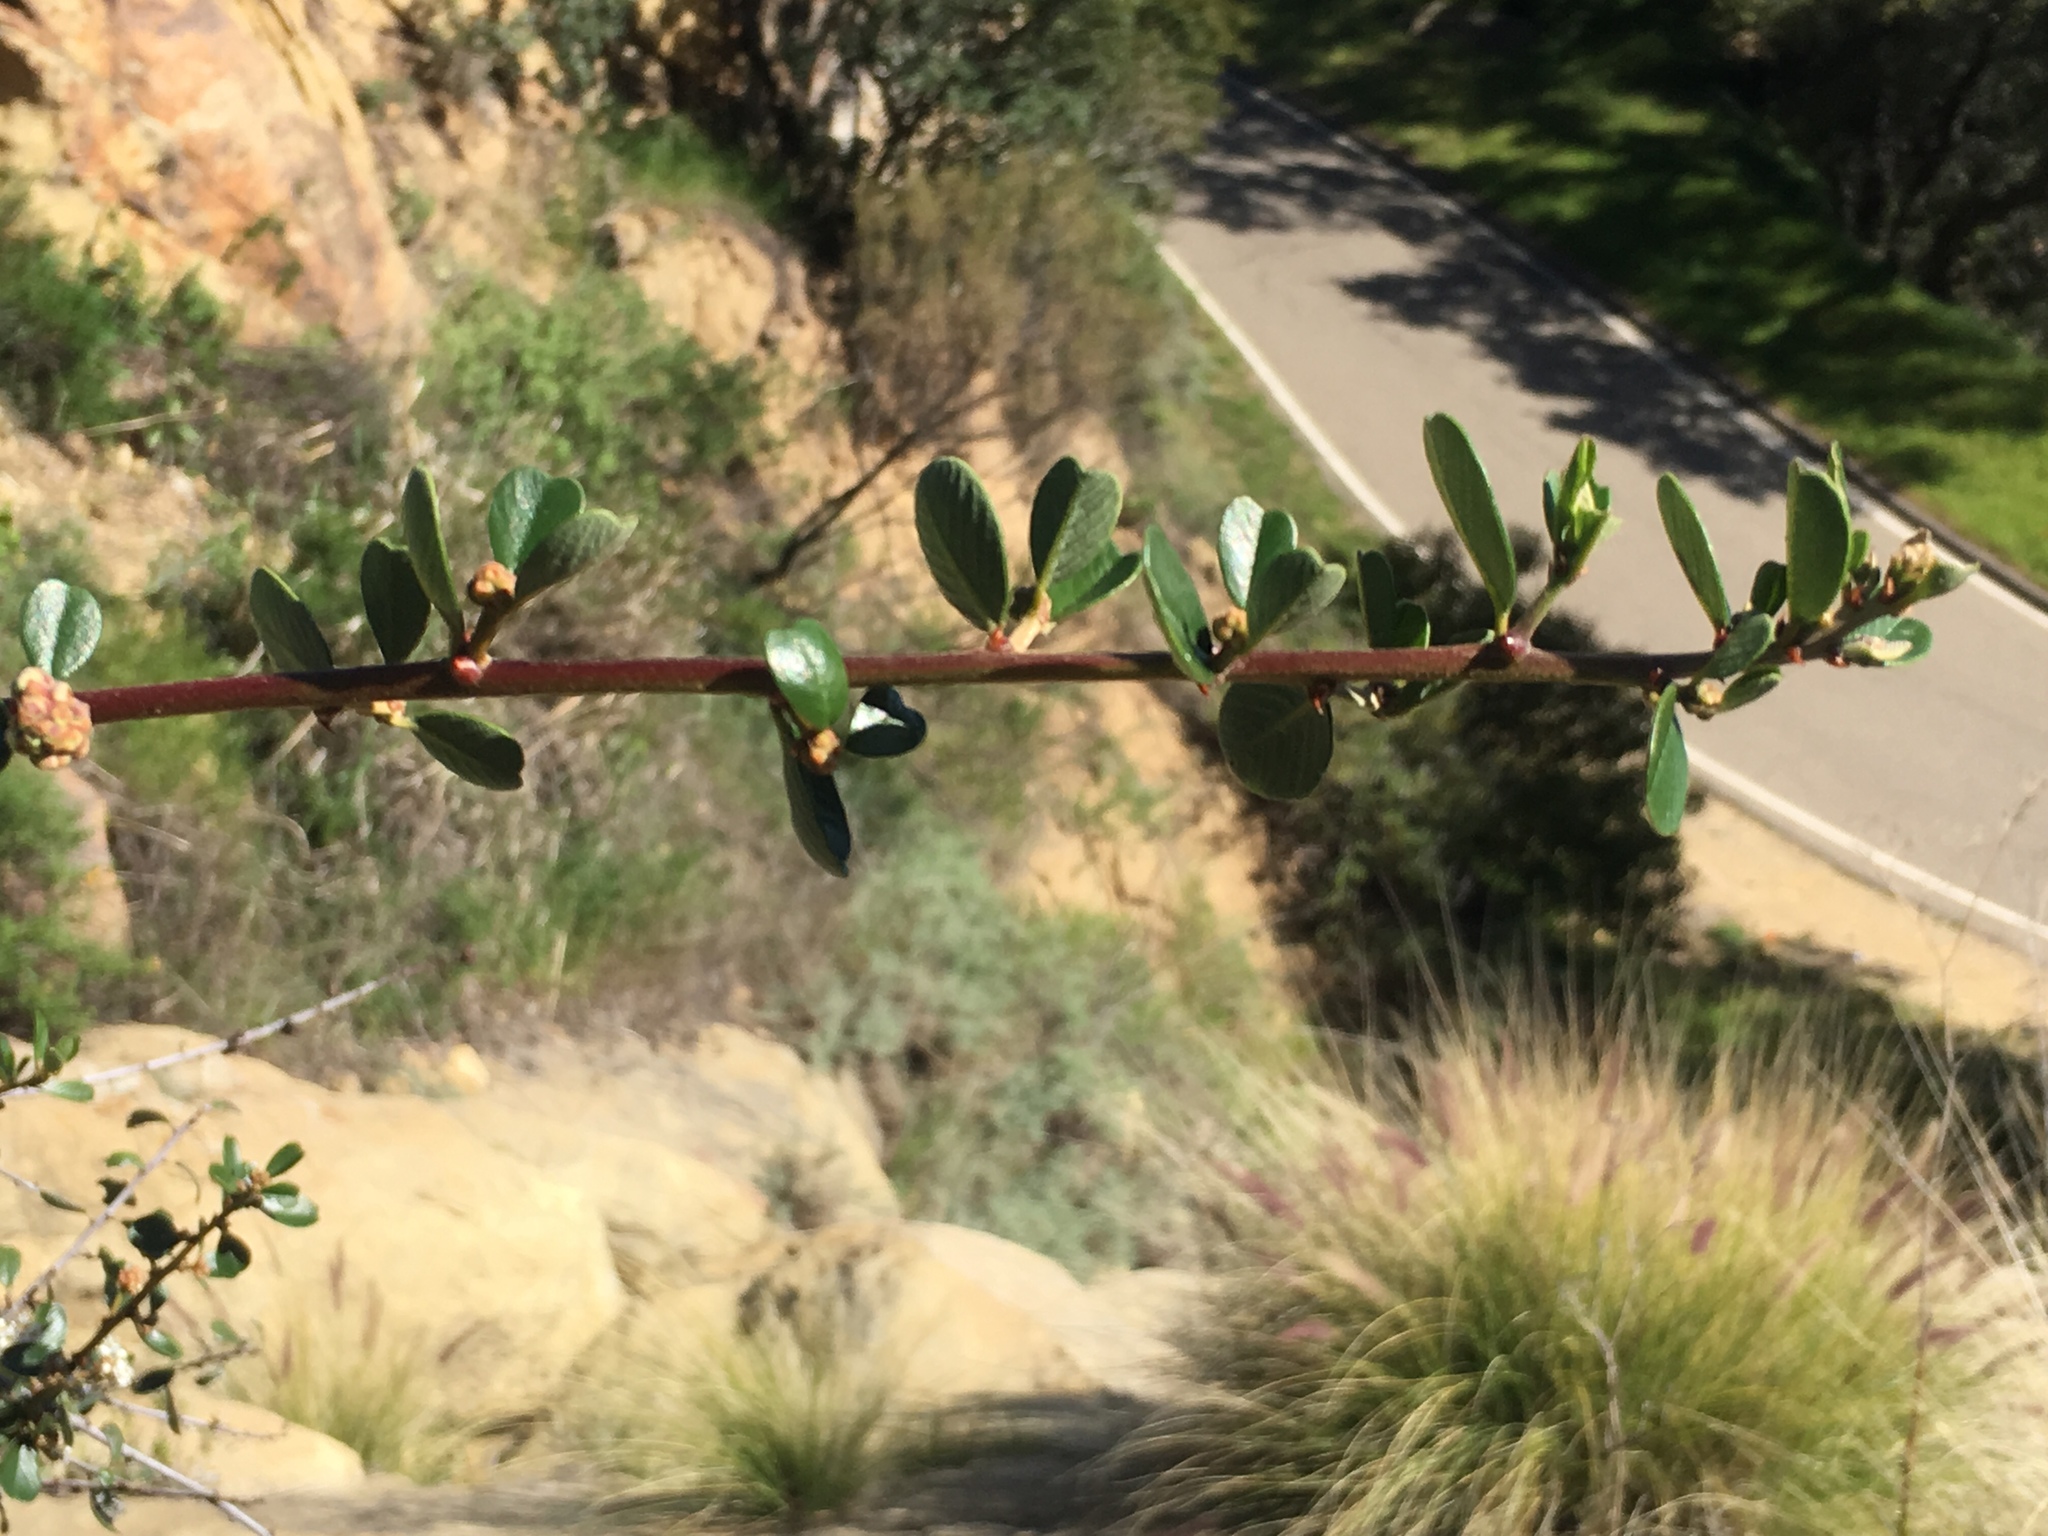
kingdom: Plantae
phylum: Tracheophyta
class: Magnoliopsida
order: Rosales
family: Rhamnaceae
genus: Ceanothus
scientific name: Ceanothus megacarpus
